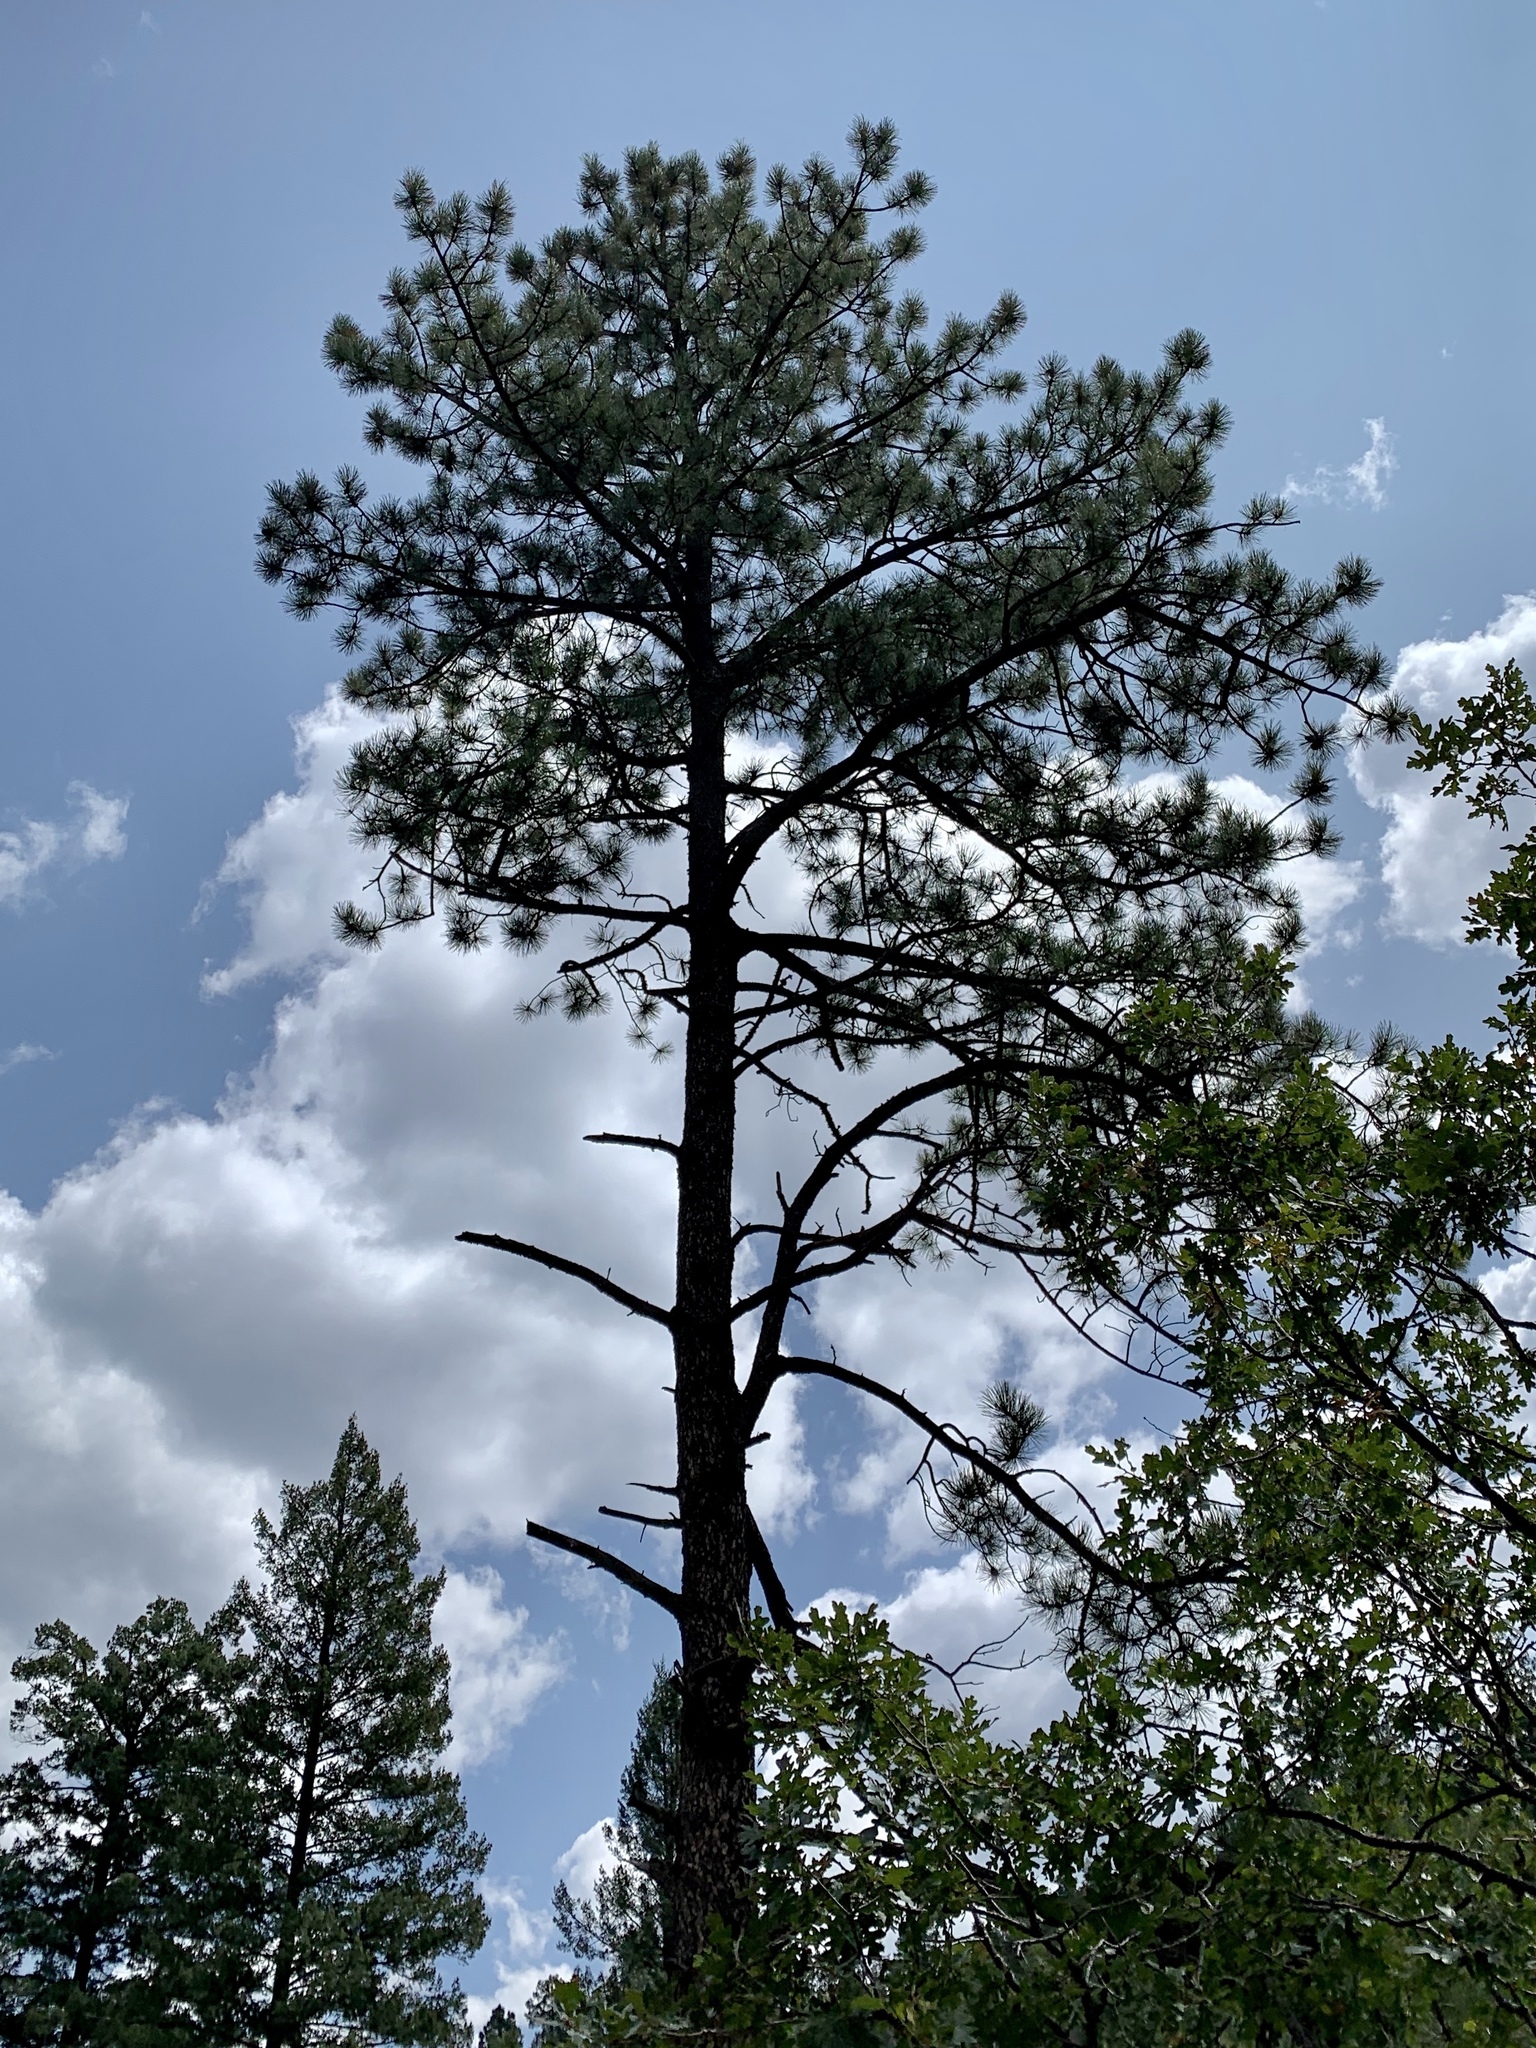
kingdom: Plantae
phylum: Tracheophyta
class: Pinopsida
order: Pinales
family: Pinaceae
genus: Pinus
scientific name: Pinus ponderosa
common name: Western yellow-pine
